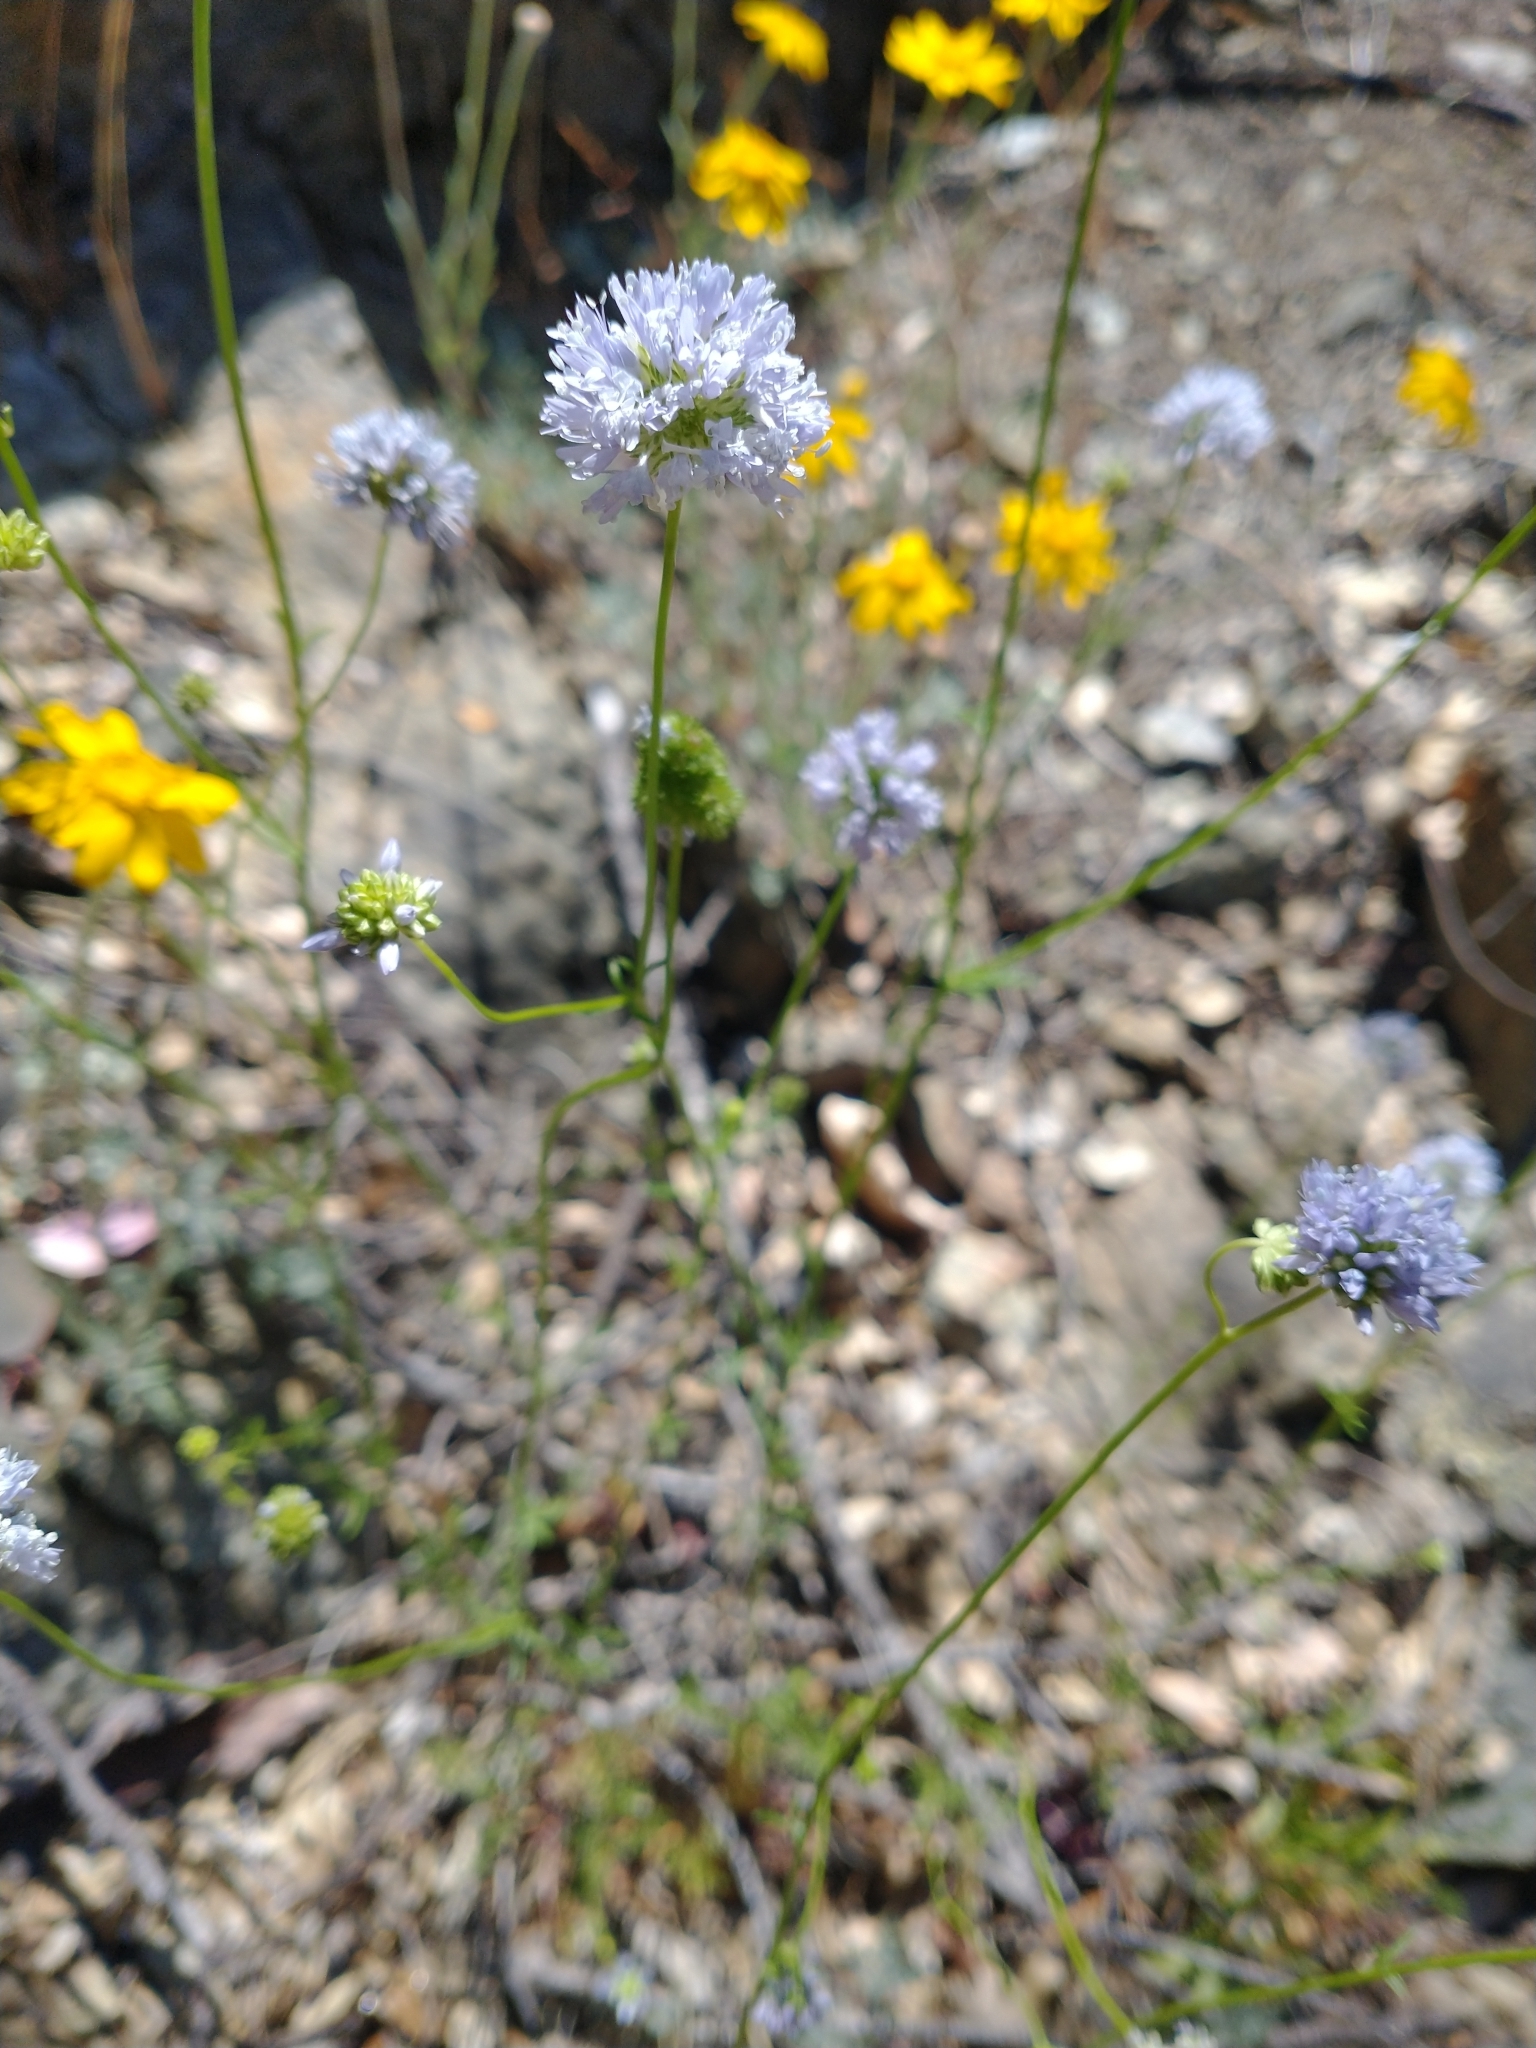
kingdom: Plantae
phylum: Tracheophyta
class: Magnoliopsida
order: Ericales
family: Polemoniaceae
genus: Gilia
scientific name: Gilia capitata
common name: Bluehead gilia
